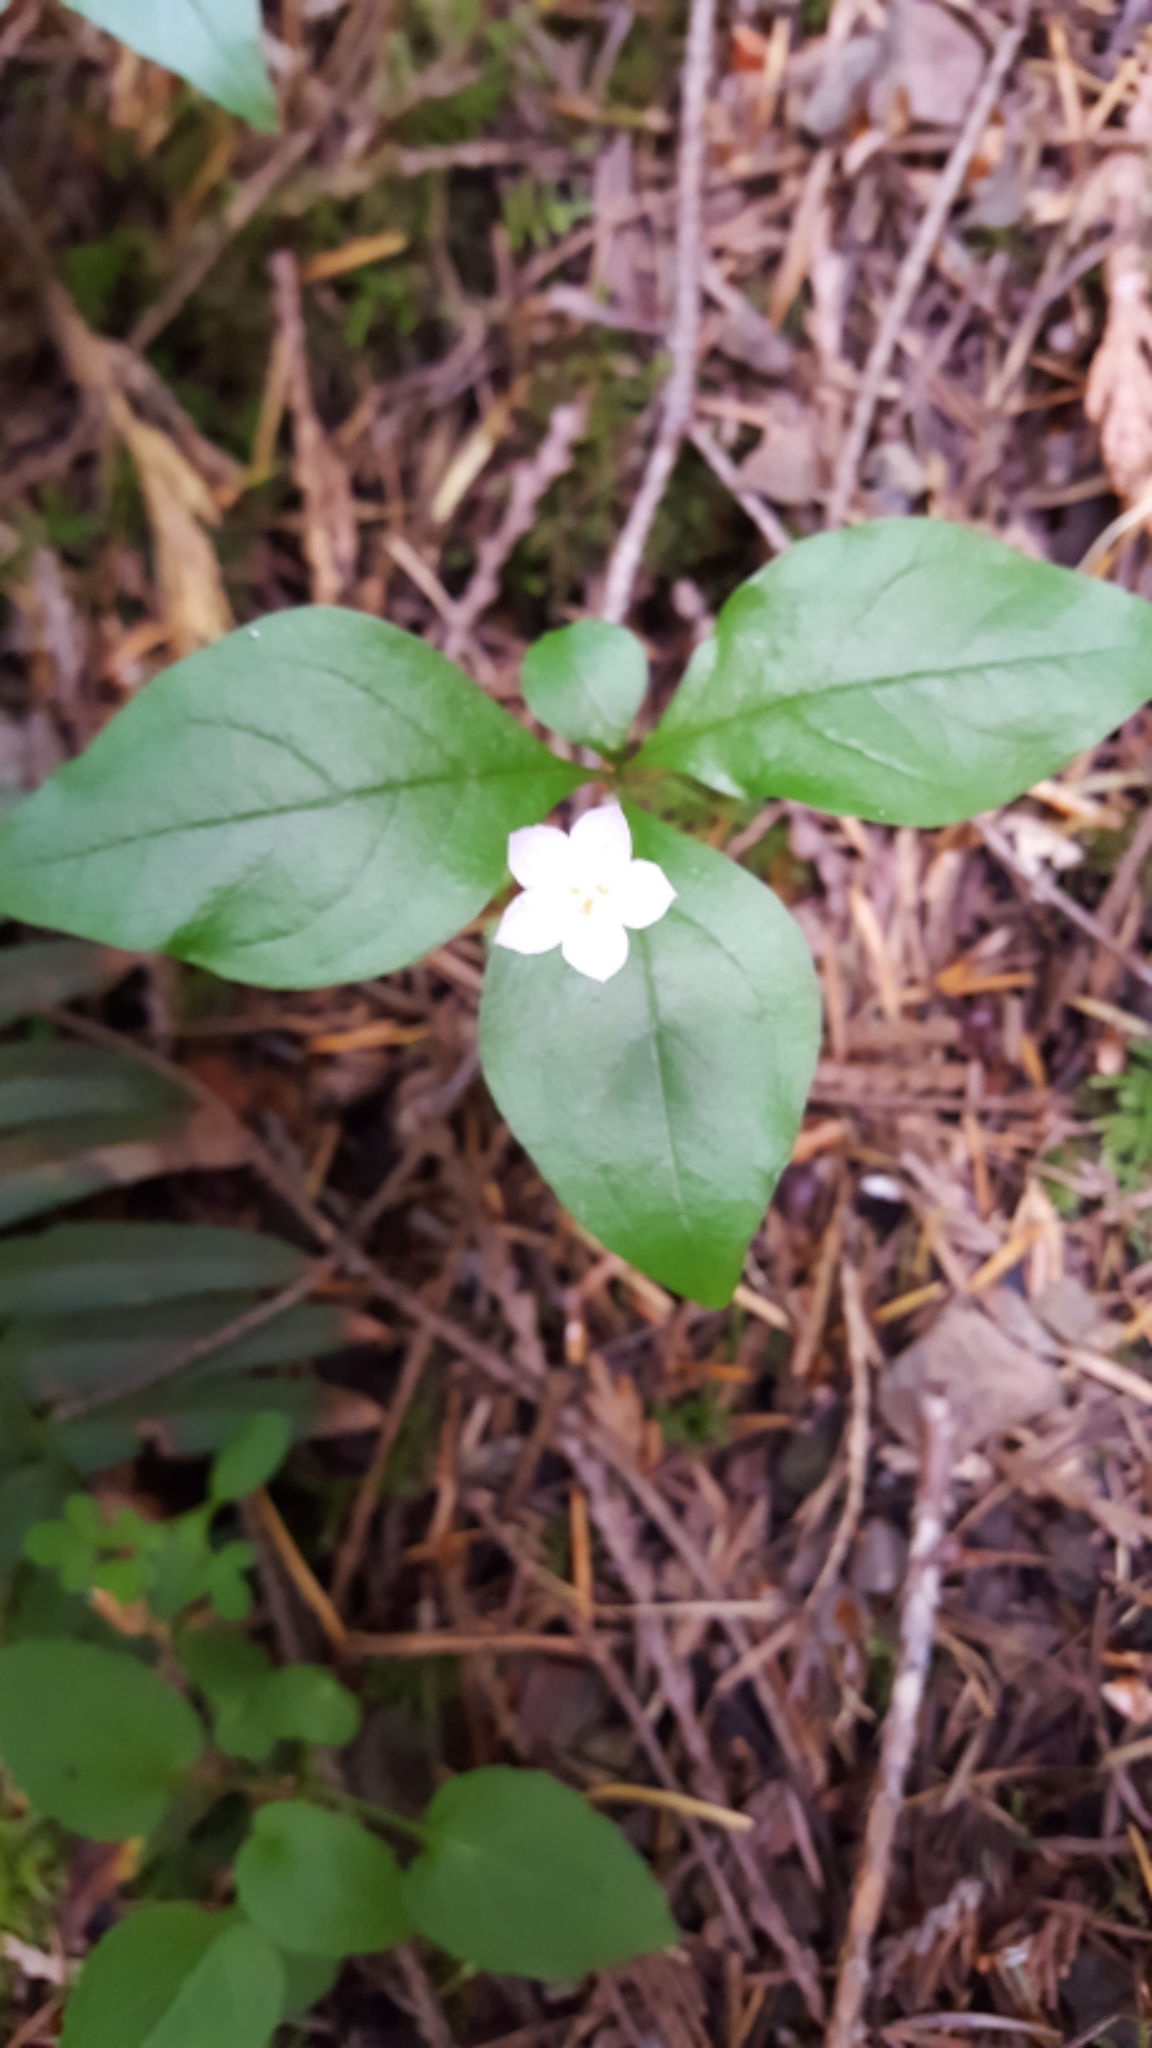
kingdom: Plantae
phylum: Tracheophyta
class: Magnoliopsida
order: Ericales
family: Primulaceae
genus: Lysimachia
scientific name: Lysimachia latifolia
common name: Pacific starflower
